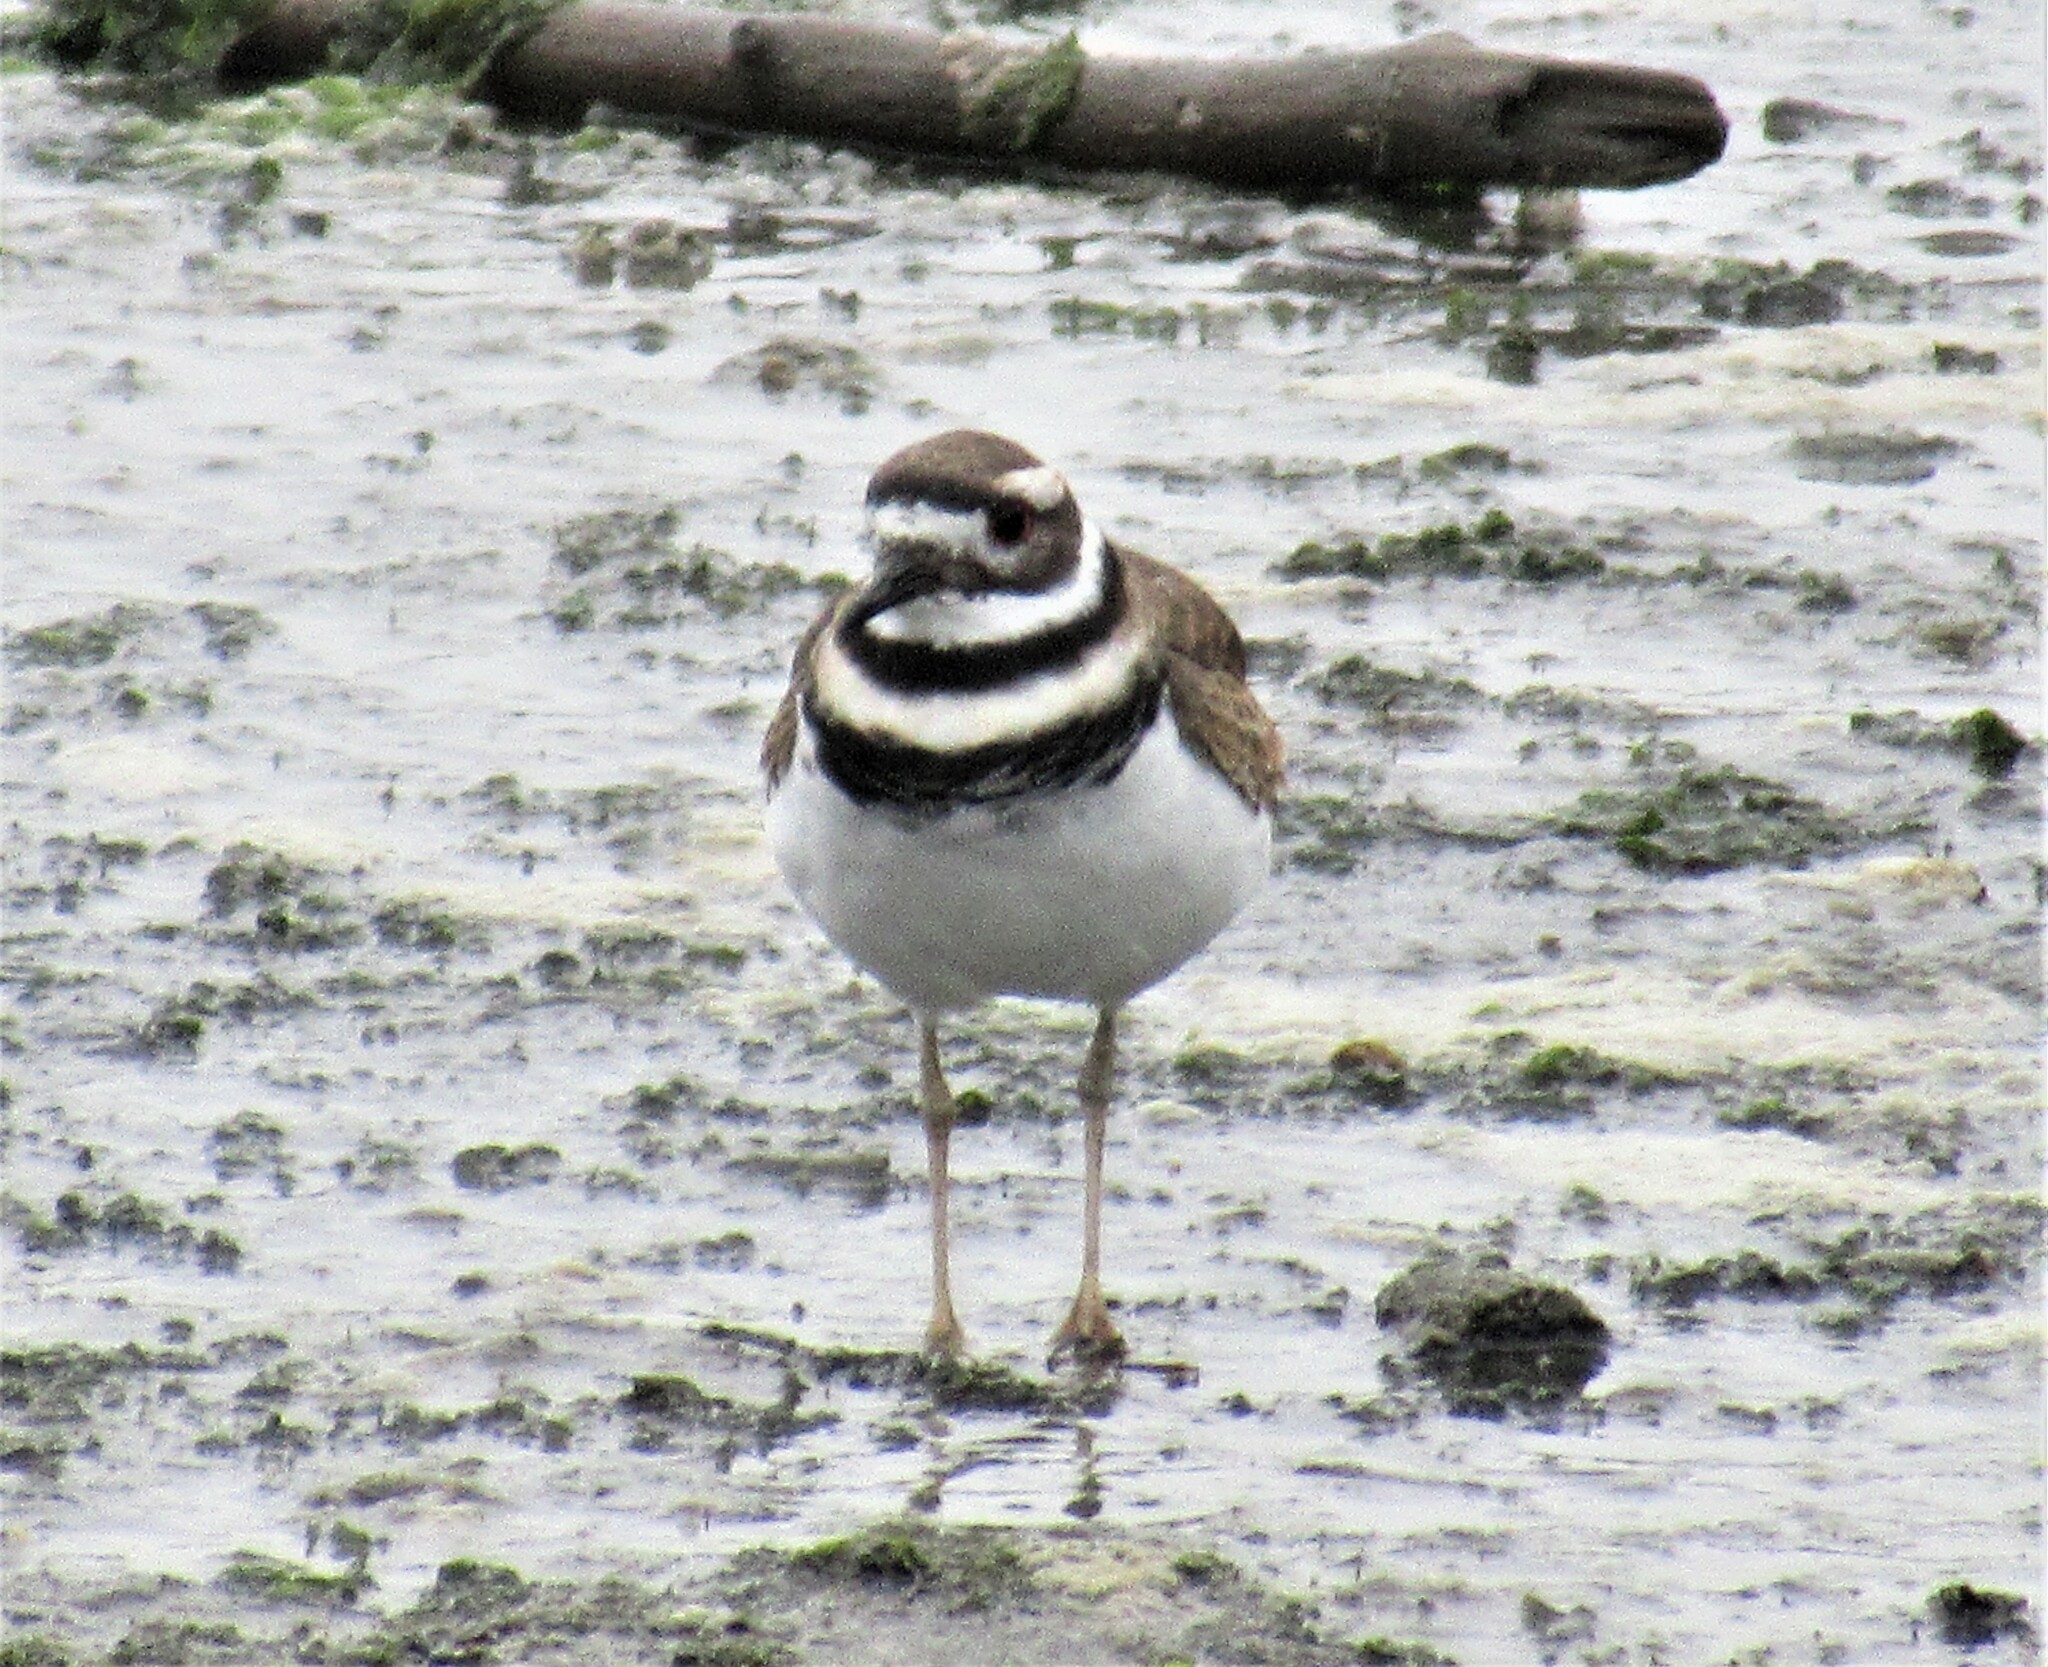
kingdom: Animalia
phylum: Chordata
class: Aves
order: Charadriiformes
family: Charadriidae
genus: Charadrius
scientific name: Charadrius vociferus
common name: Killdeer
